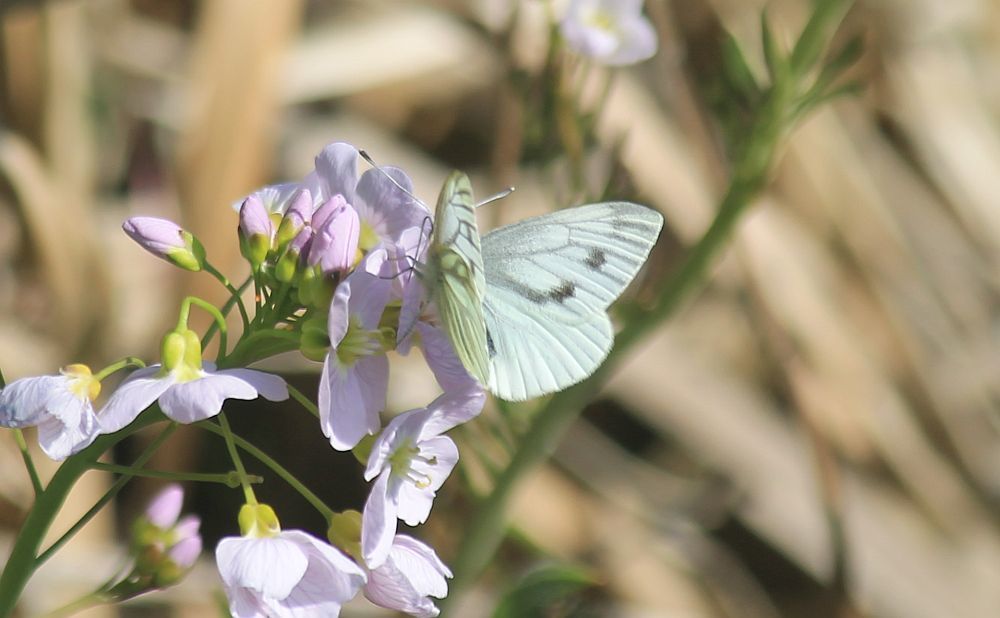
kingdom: Animalia
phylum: Arthropoda
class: Insecta
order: Lepidoptera
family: Pieridae
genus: Pieris
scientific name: Pieris napi
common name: Green-veined white
